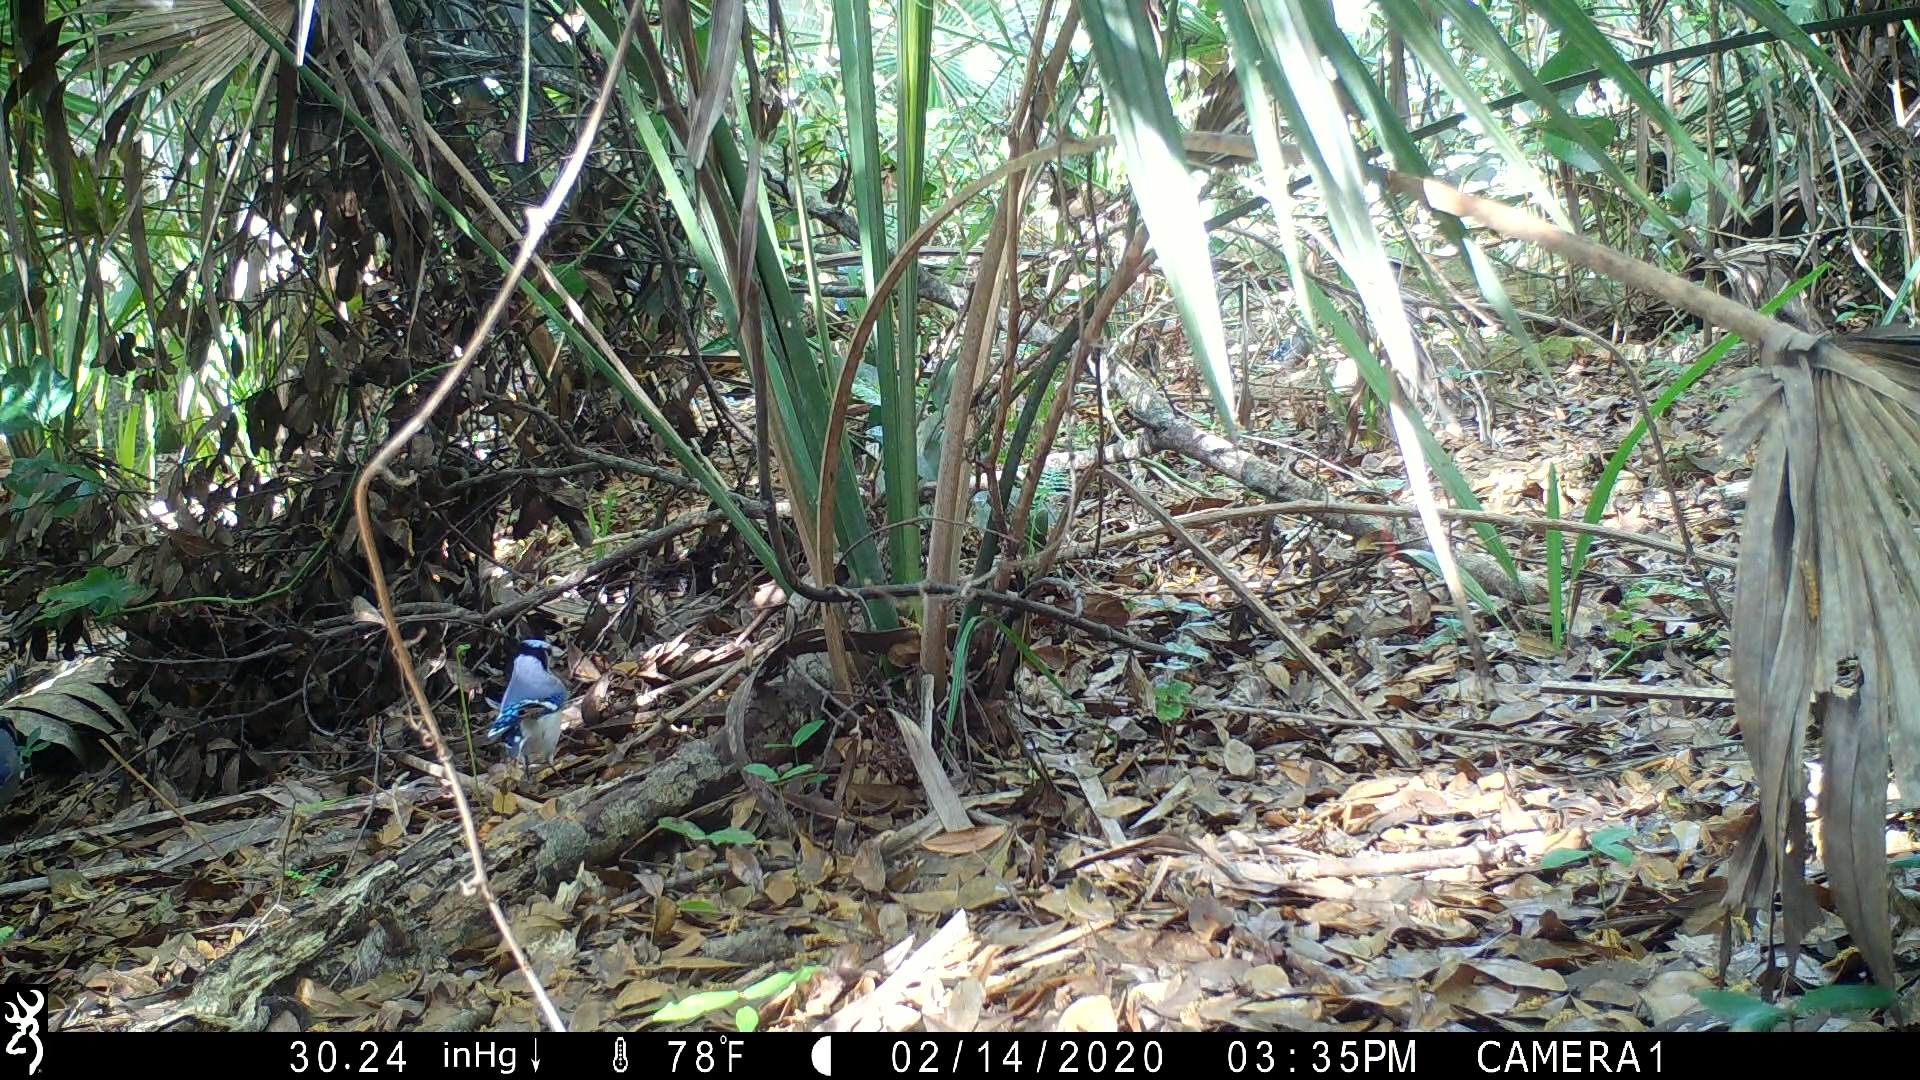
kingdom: Animalia
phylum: Chordata
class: Aves
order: Passeriformes
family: Corvidae
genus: Cyanocitta
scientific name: Cyanocitta cristata
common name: Blue jay
